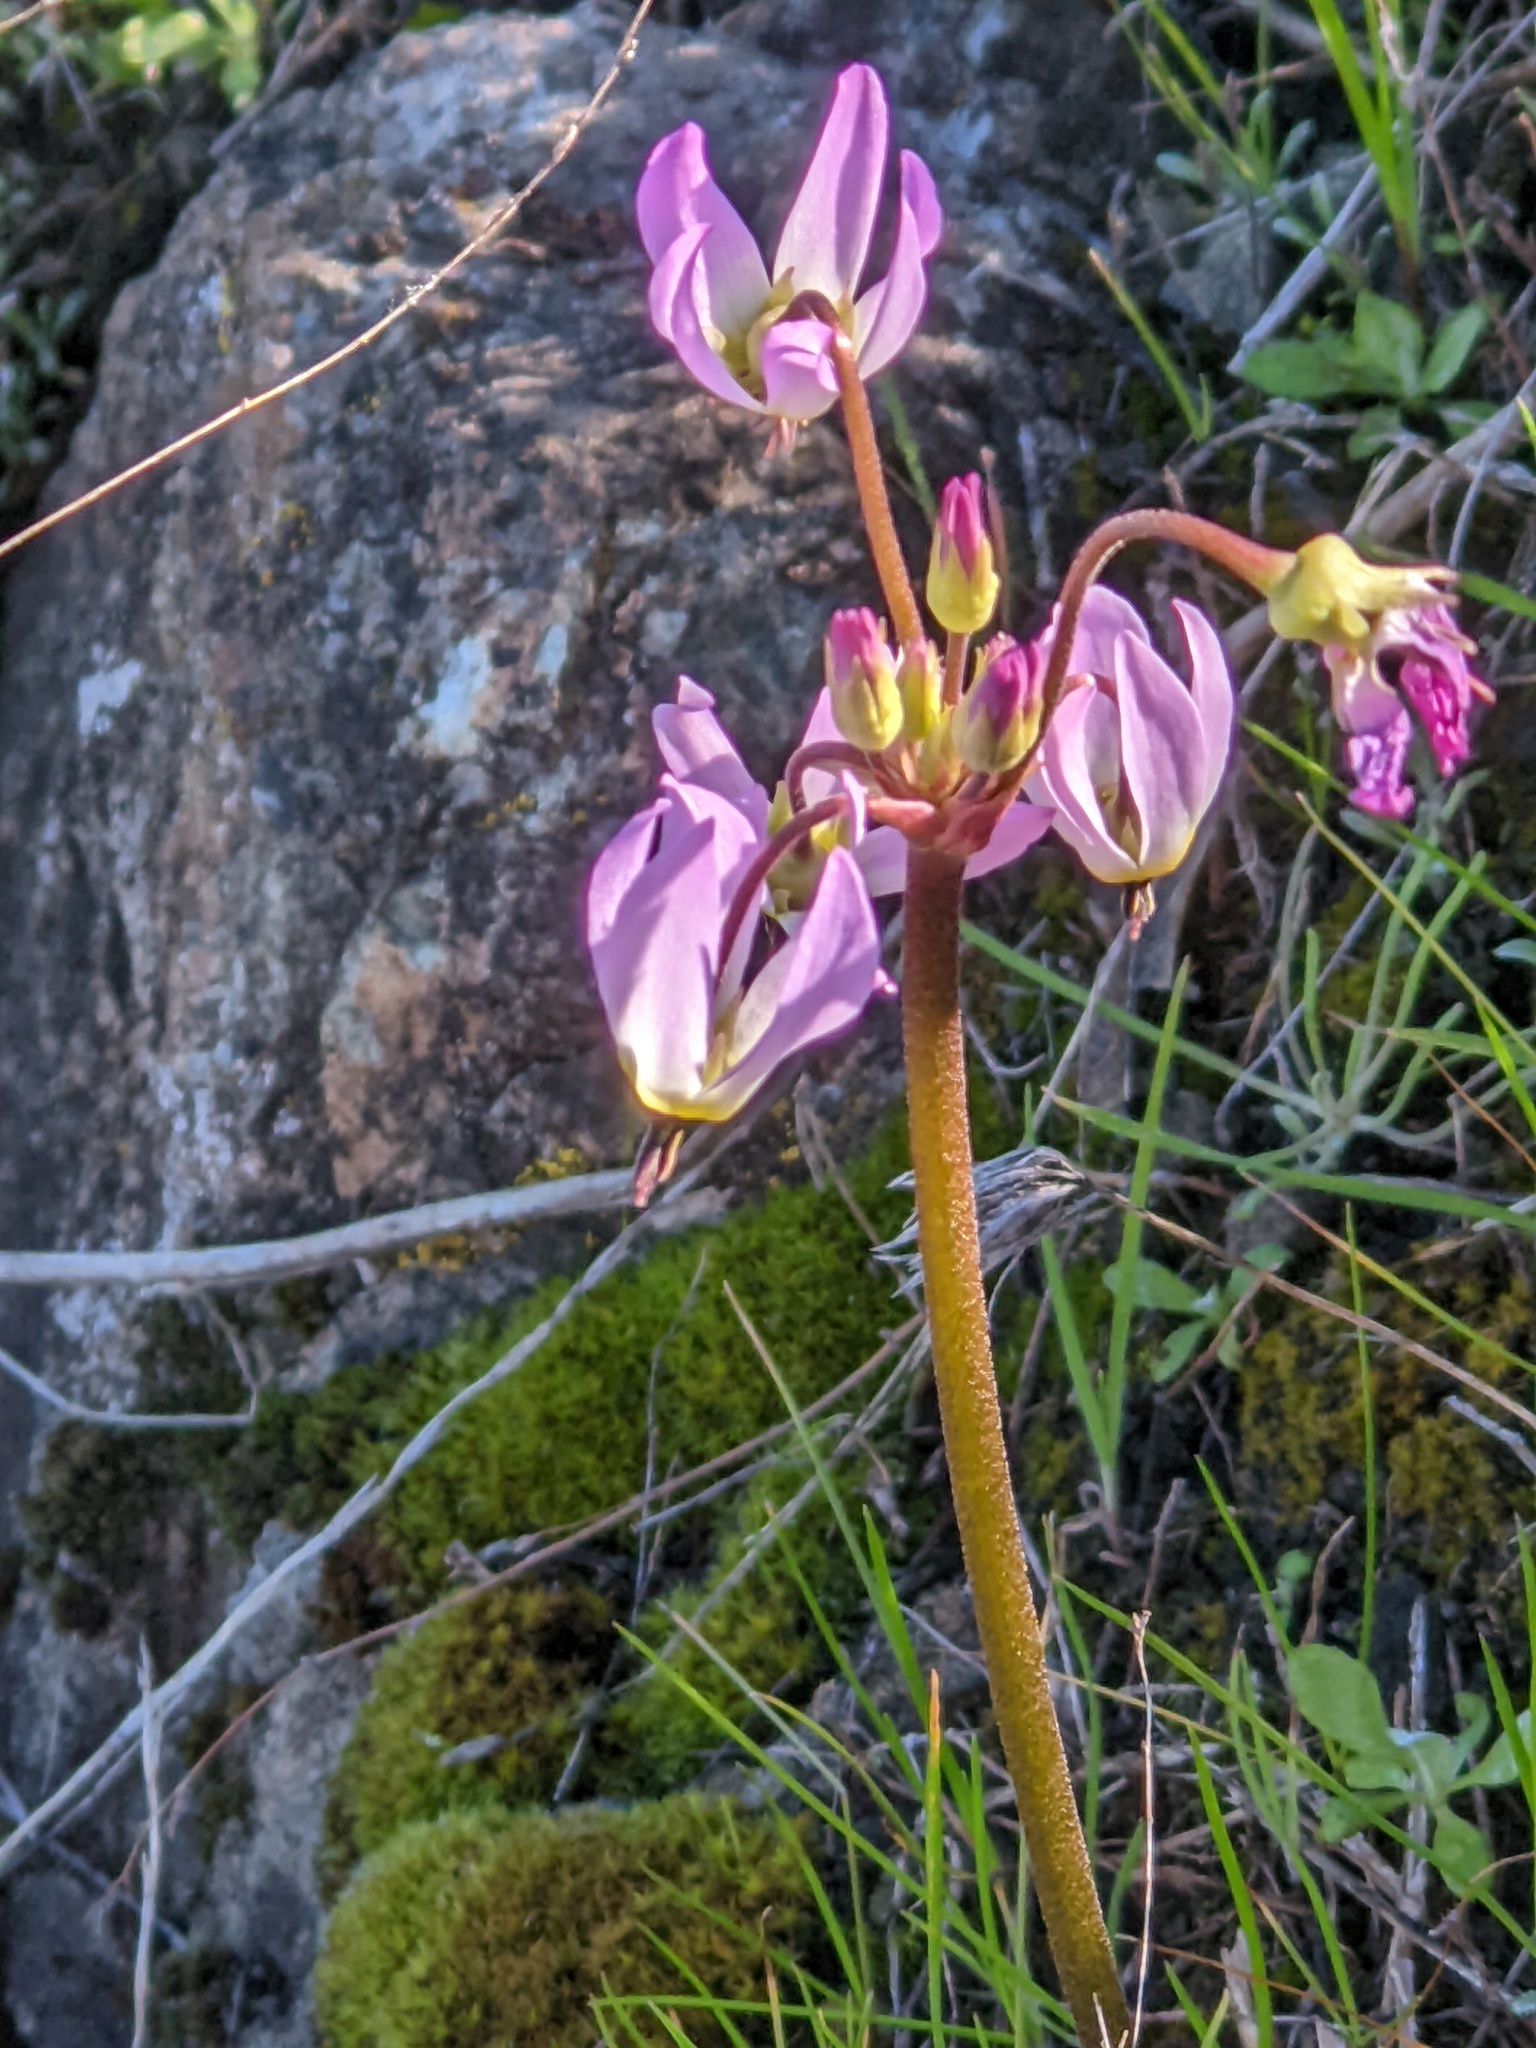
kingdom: Plantae
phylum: Tracheophyta
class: Magnoliopsida
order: Ericales
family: Primulaceae
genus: Dodecatheon
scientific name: Dodecatheon hendersonii
